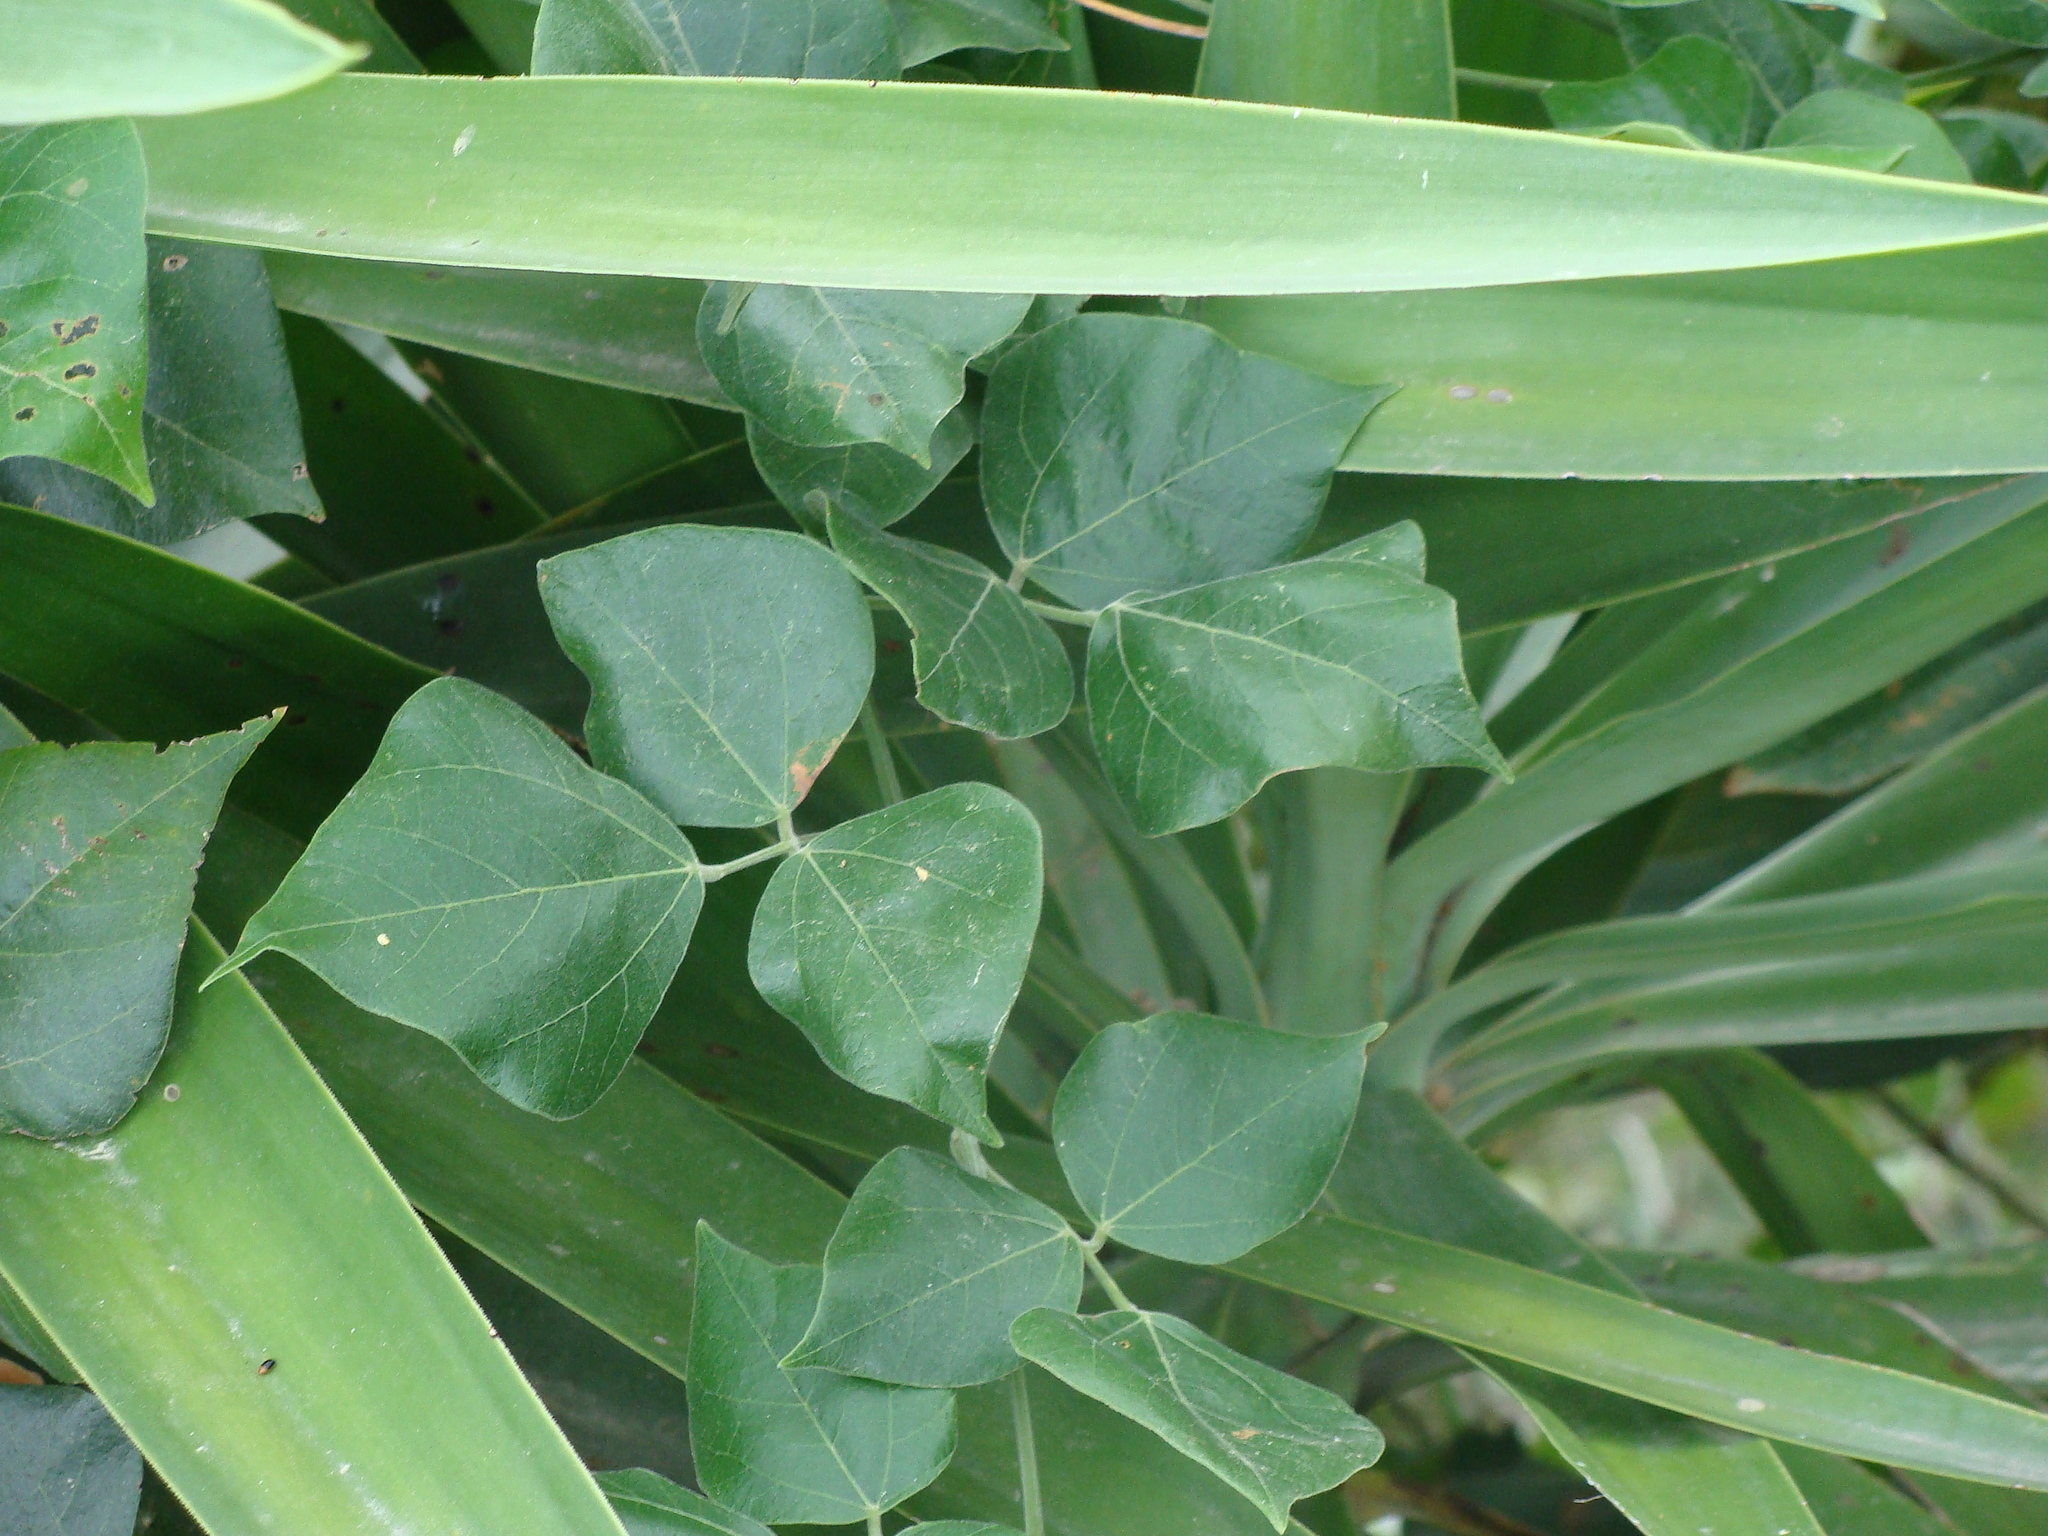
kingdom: Plantae
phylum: Tracheophyta
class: Magnoliopsida
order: Fabales
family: Fabaceae
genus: Rhynchosia
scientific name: Rhynchosia precatoria
